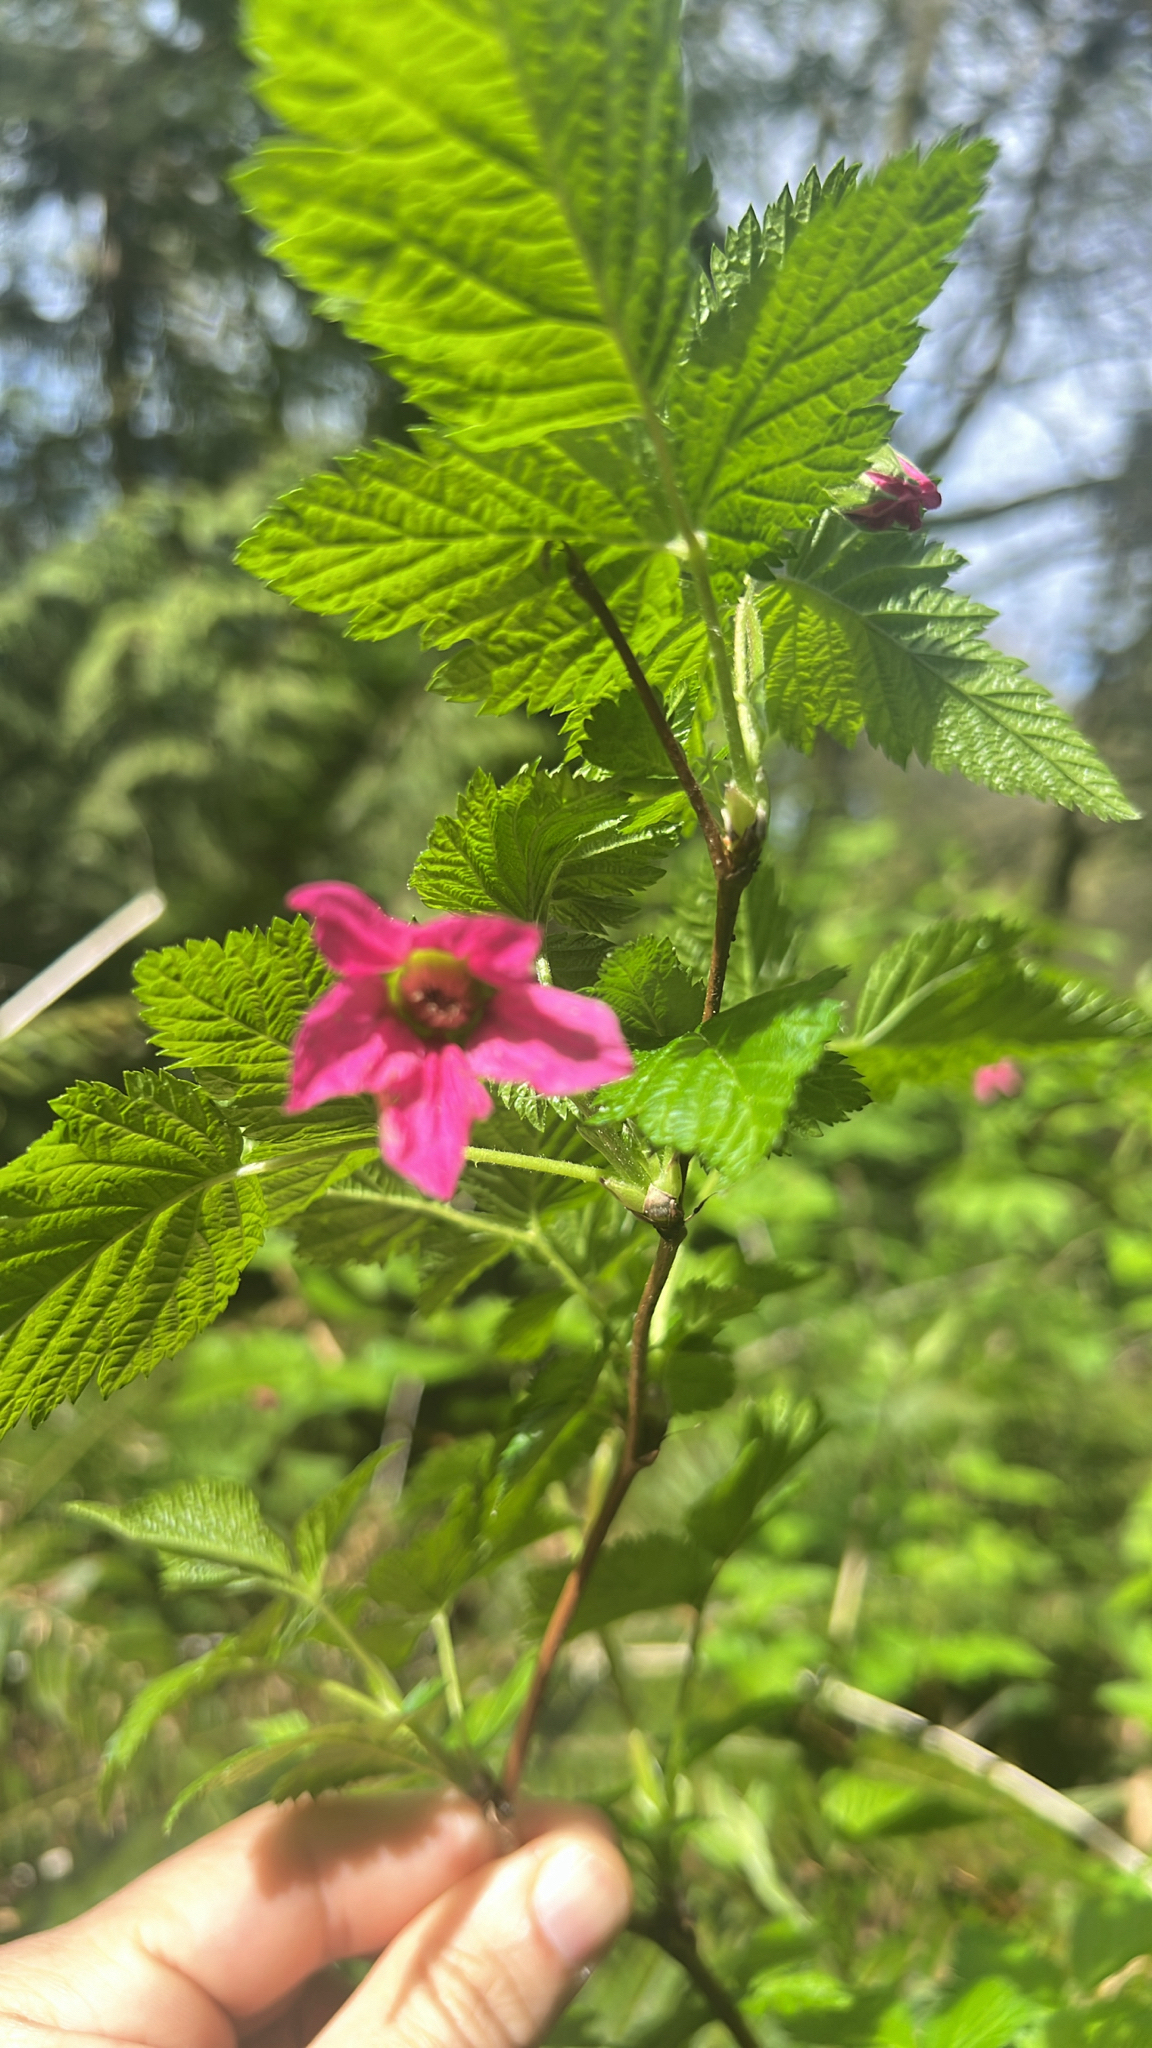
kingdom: Plantae
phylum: Tracheophyta
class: Magnoliopsida
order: Rosales
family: Rosaceae
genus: Rubus
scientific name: Rubus spectabilis
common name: Salmonberry
